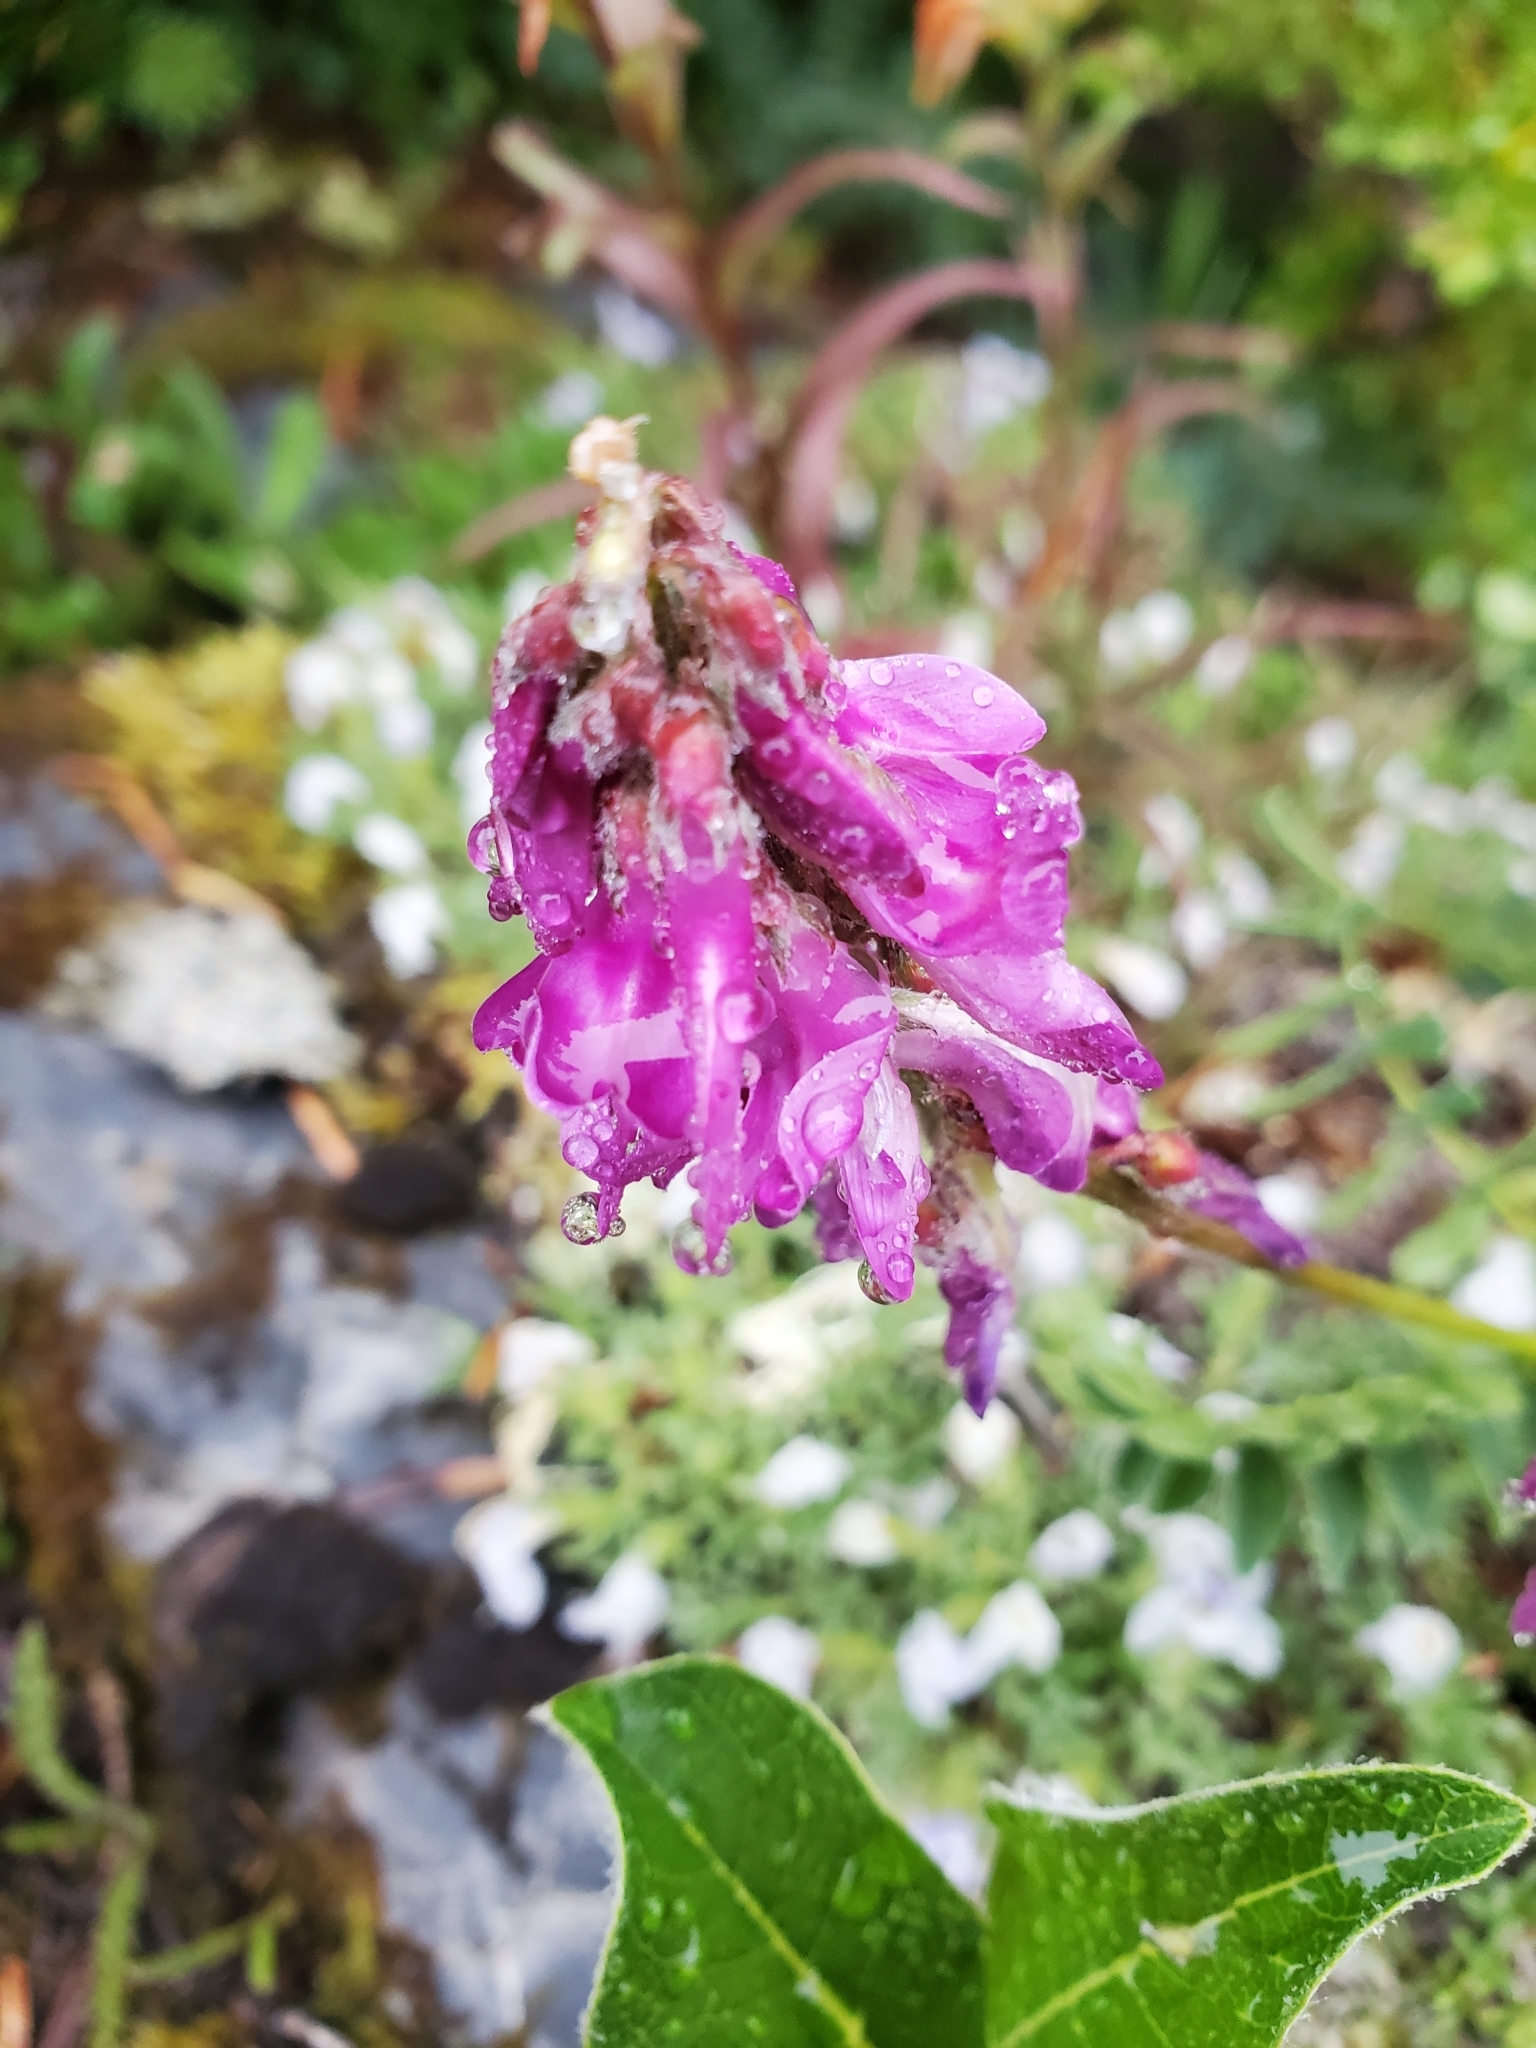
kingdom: Plantae
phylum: Tracheophyta
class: Magnoliopsida
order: Fabales
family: Fabaceae
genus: Hedysarum
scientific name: Hedysarum occidentale
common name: Western hedysarum
